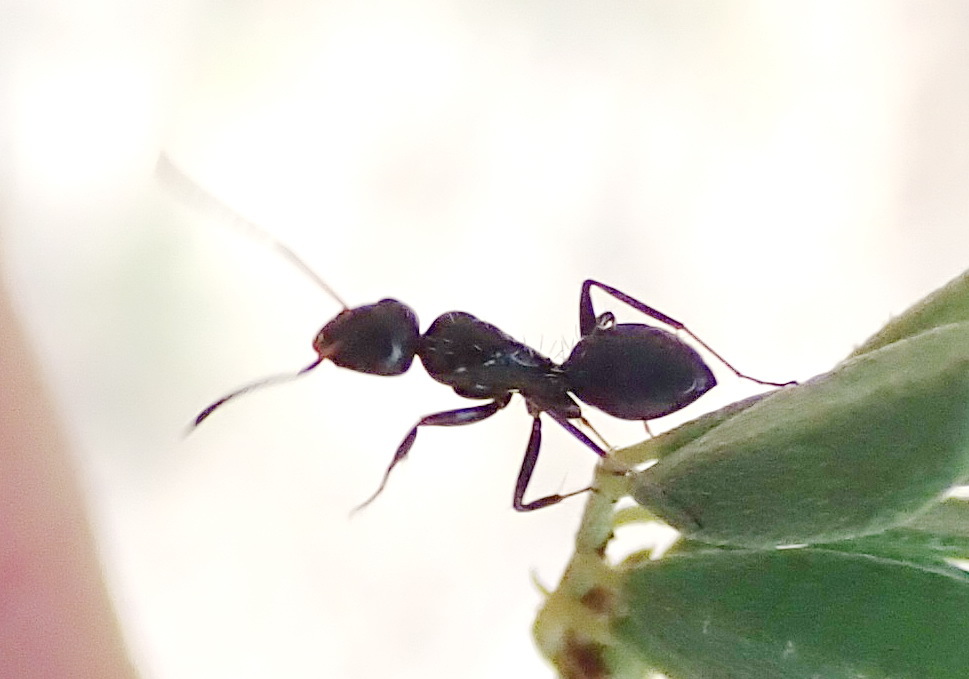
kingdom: Animalia
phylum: Arthropoda
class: Insecta
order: Hymenoptera
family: Formicidae
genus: Camponotus
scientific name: Camponotus niveosetosus
